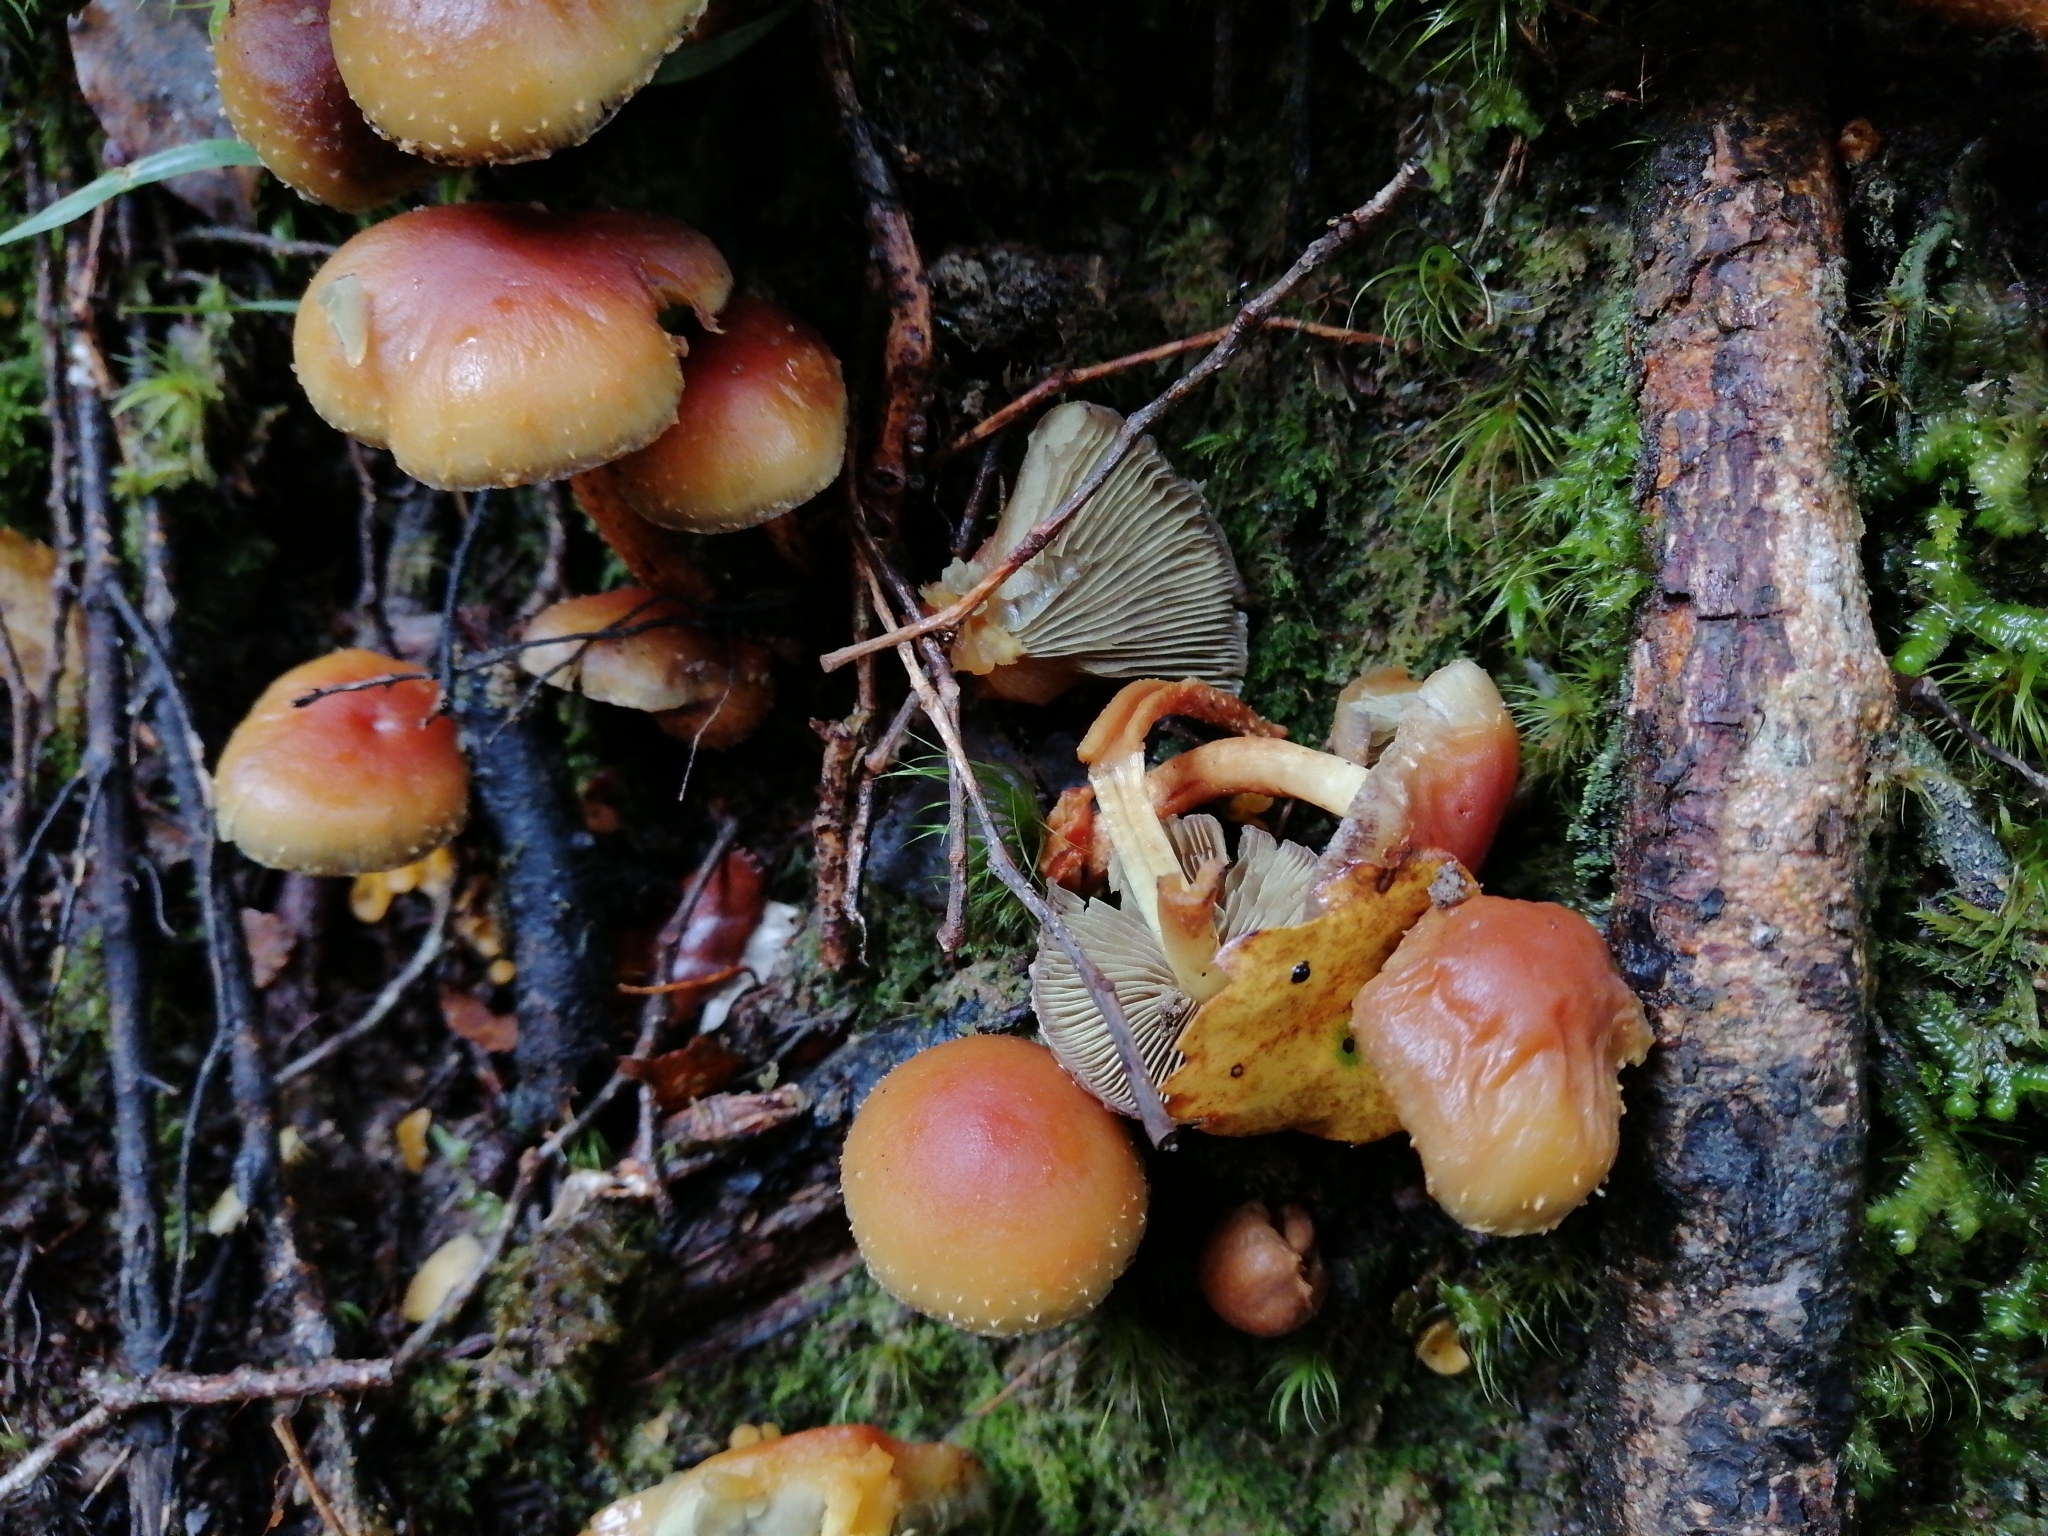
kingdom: Fungi
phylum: Basidiomycota
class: Agaricomycetes
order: Agaricales
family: Strophariaceae
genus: Hypholoma
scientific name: Hypholoma australianum
